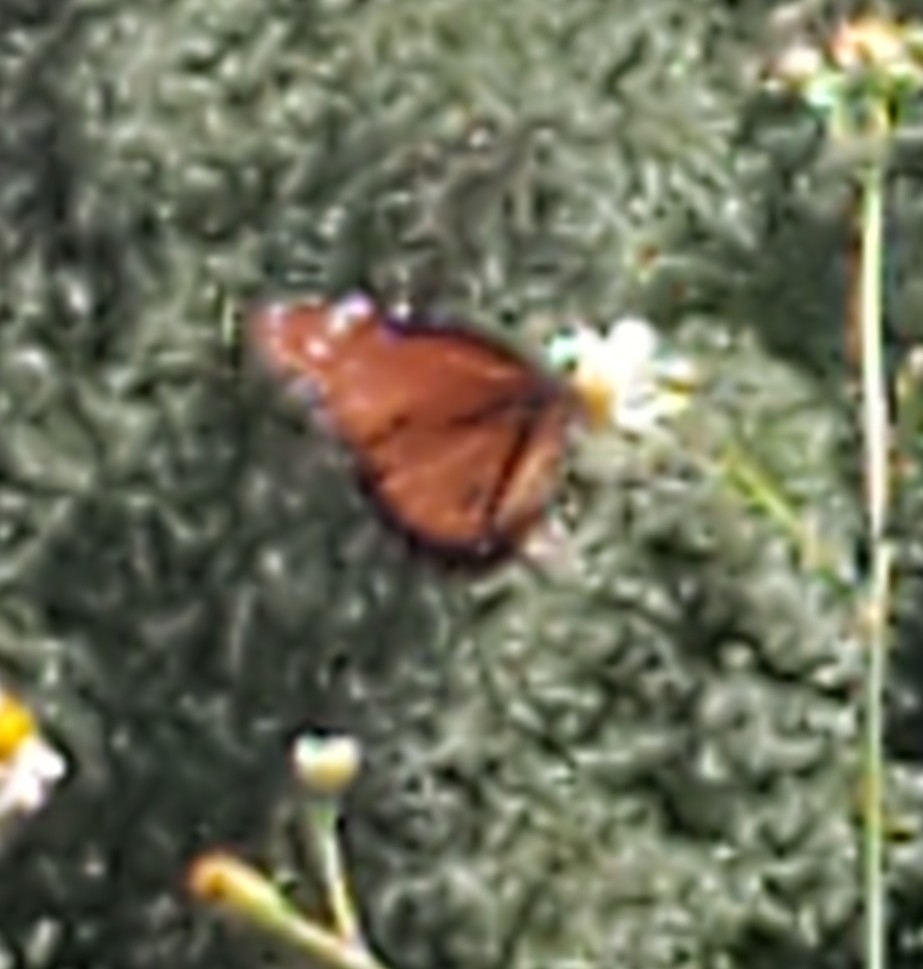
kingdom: Animalia
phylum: Arthropoda
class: Insecta
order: Lepidoptera
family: Nymphalidae
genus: Danaus
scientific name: Danaus gilippus
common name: Queen
